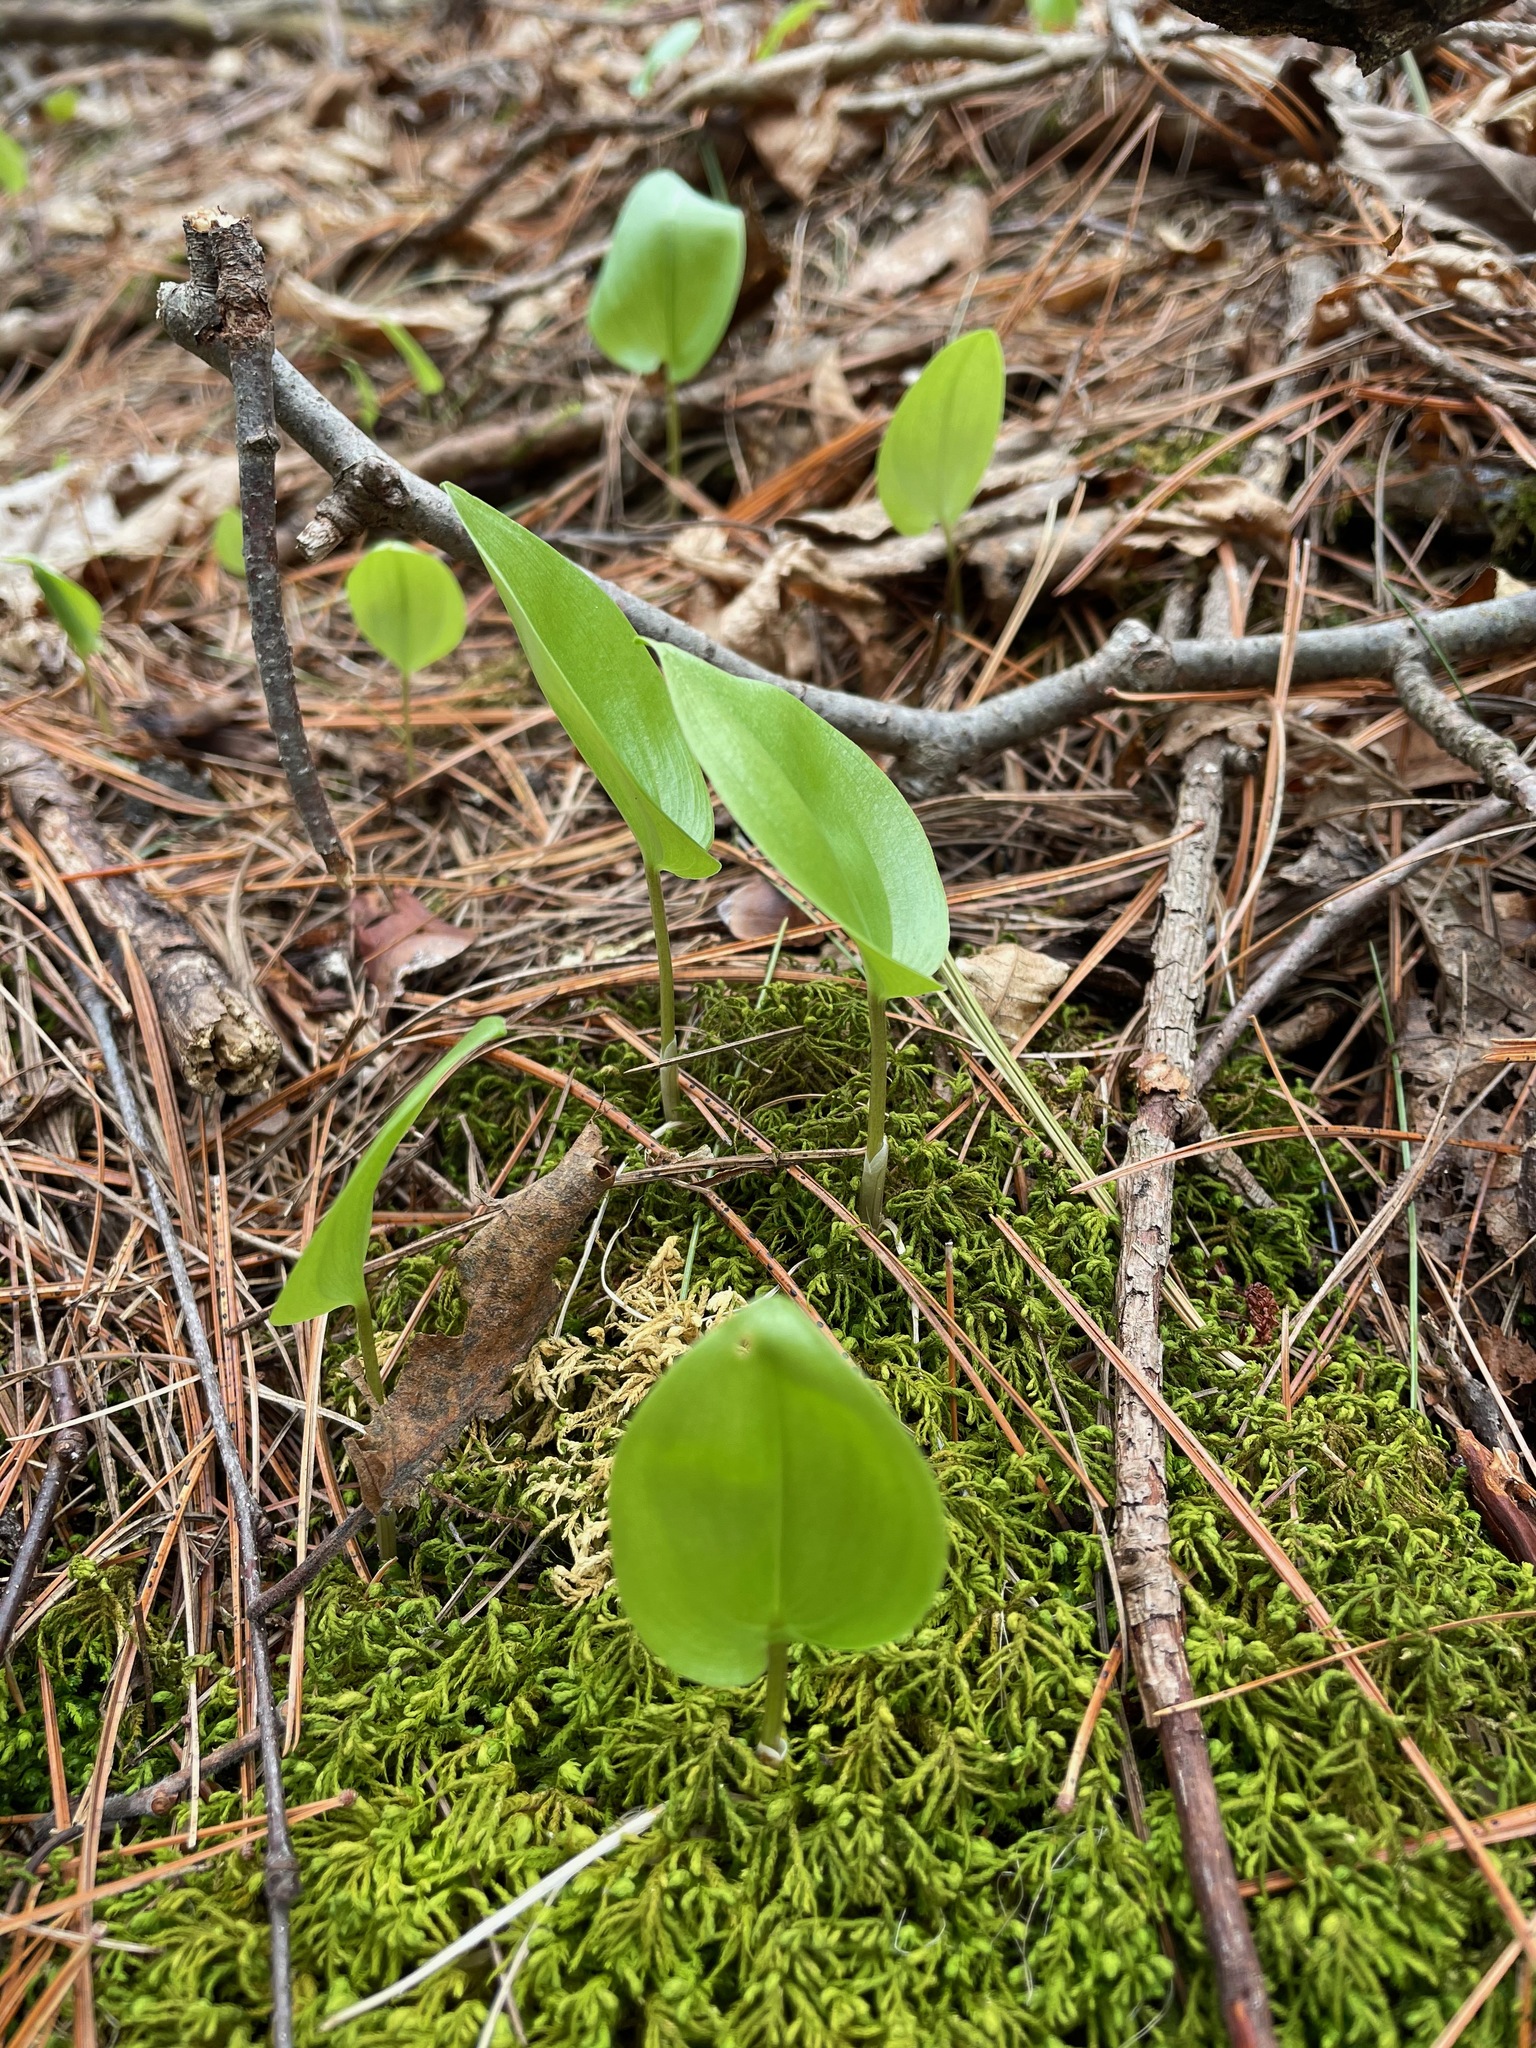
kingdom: Plantae
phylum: Tracheophyta
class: Liliopsida
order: Asparagales
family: Asparagaceae
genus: Maianthemum
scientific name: Maianthemum canadense
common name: False lily-of-the-valley
